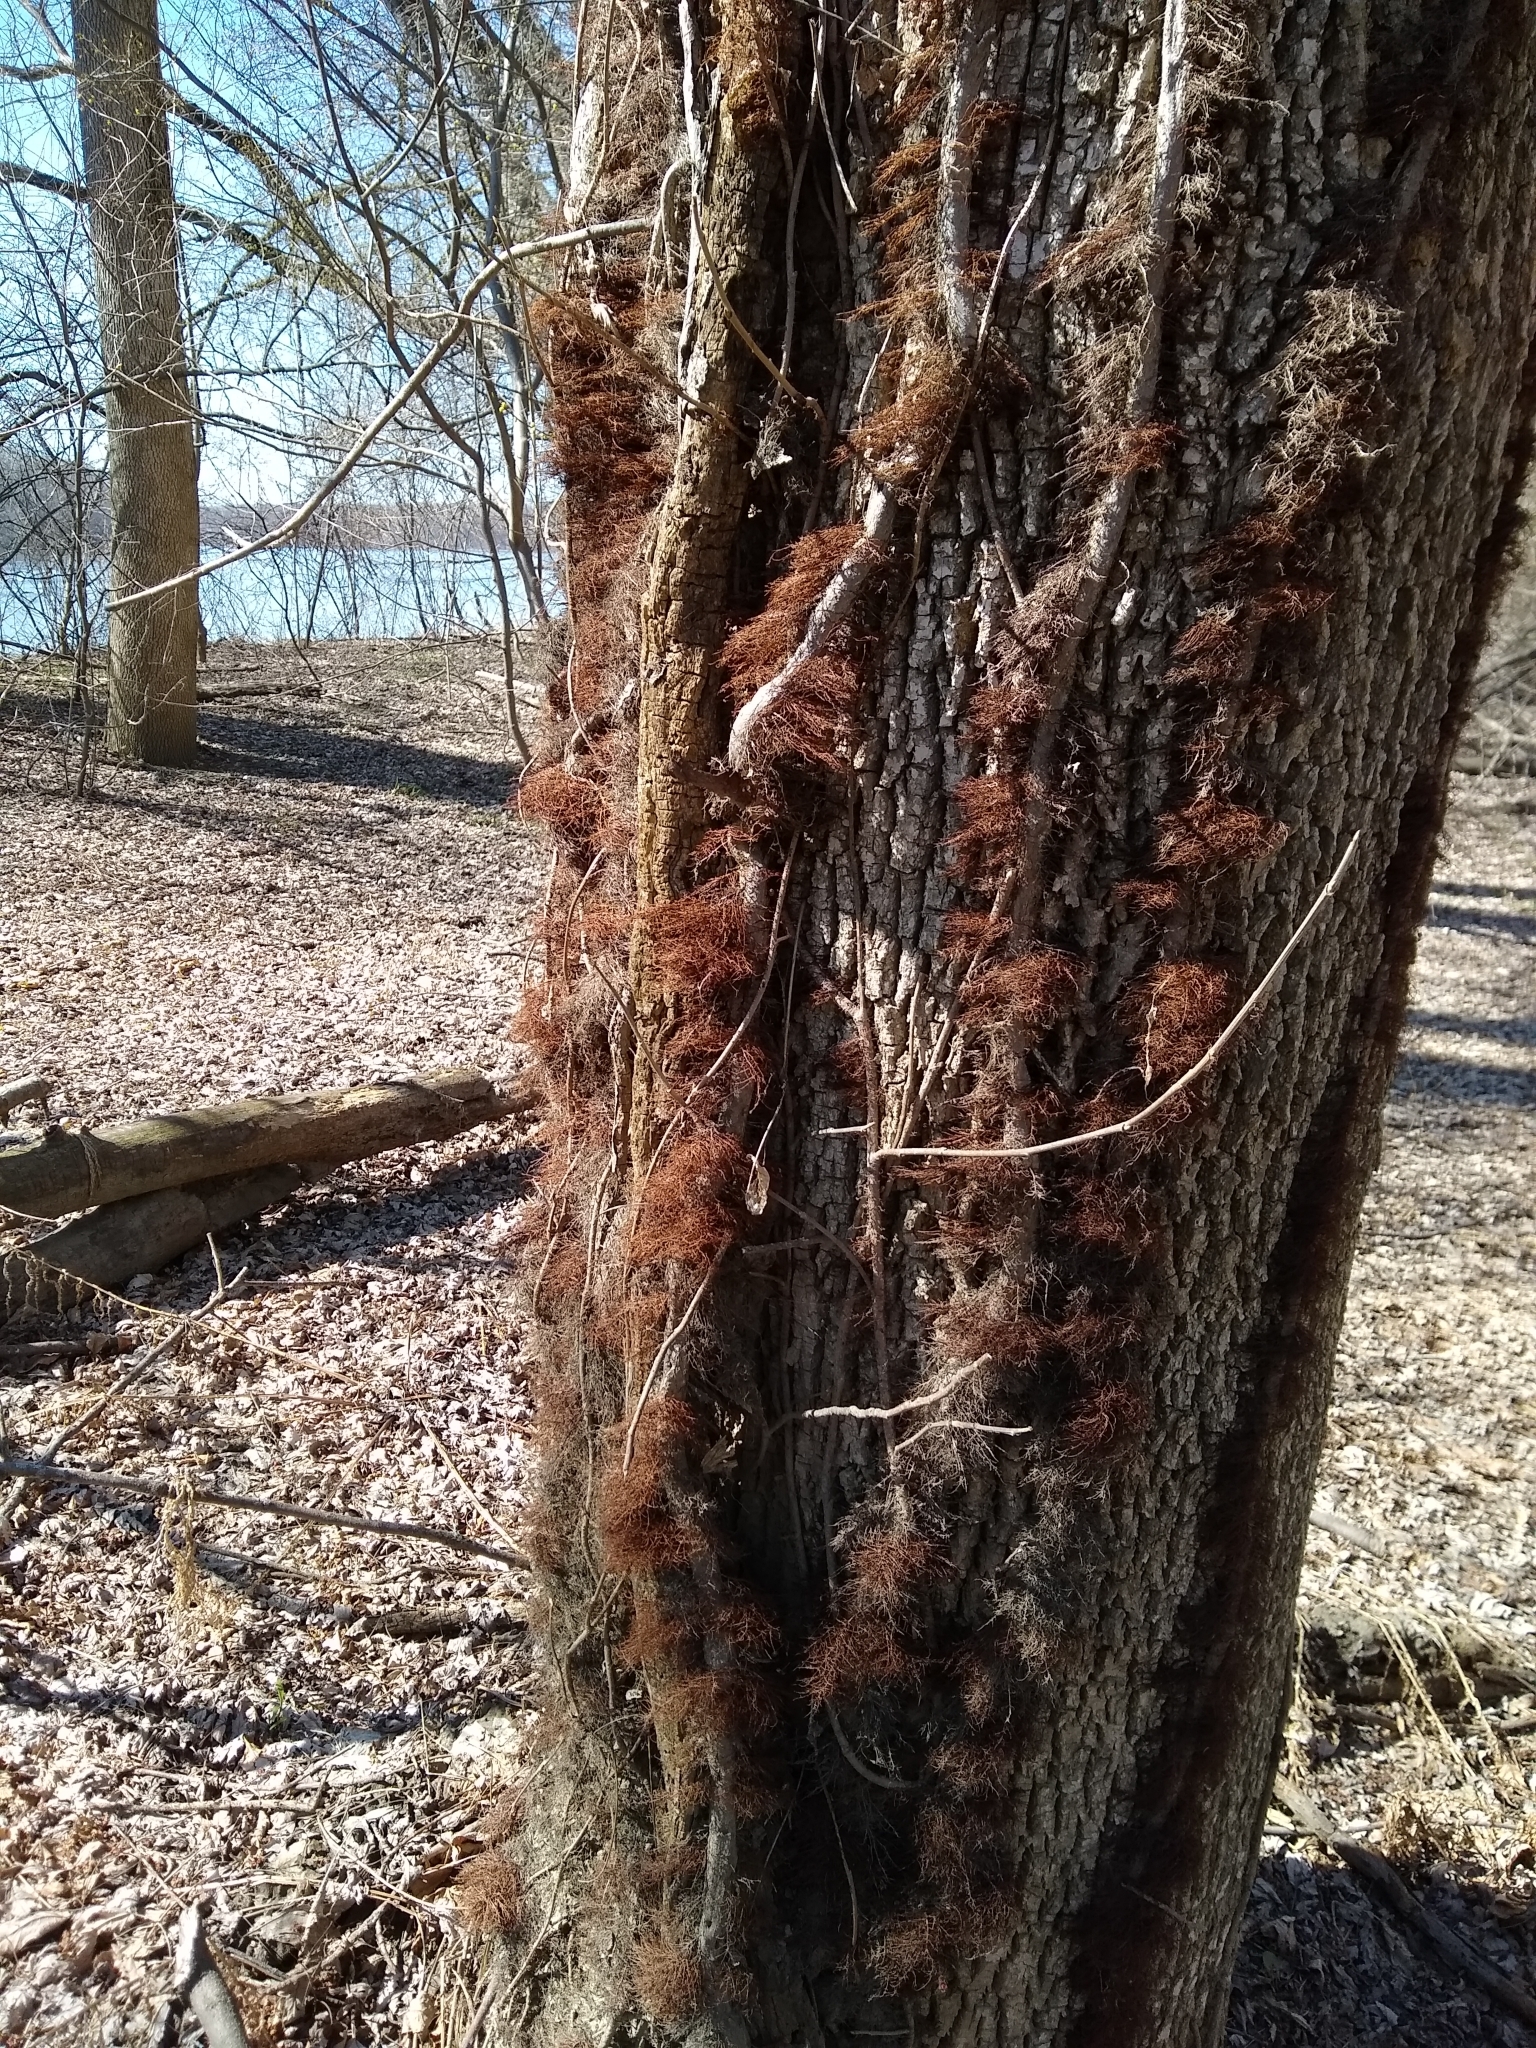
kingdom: Plantae
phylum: Tracheophyta
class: Magnoliopsida
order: Sapindales
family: Anacardiaceae
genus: Toxicodendron
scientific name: Toxicodendron radicans
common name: Poison ivy
